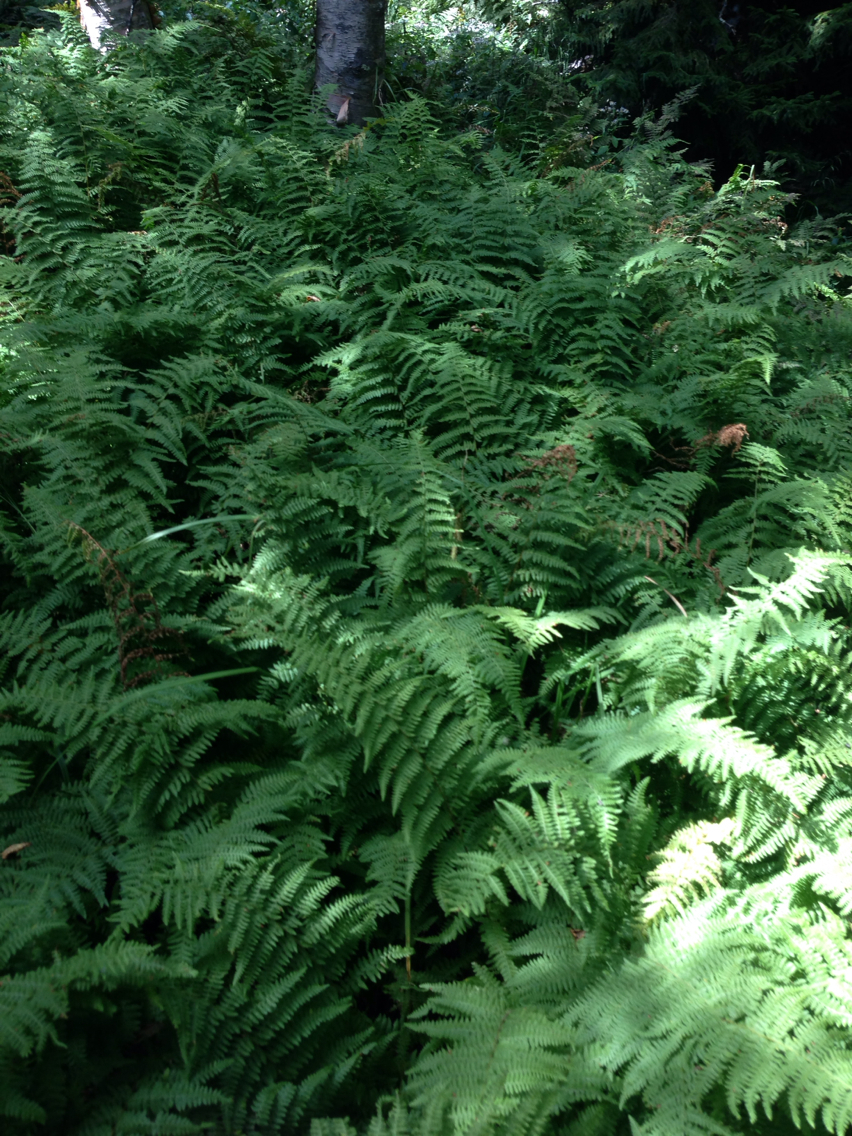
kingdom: Plantae
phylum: Tracheophyta
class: Polypodiopsida
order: Polypodiales
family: Dennstaedtiaceae
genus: Sitobolium
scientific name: Sitobolium punctilobum
